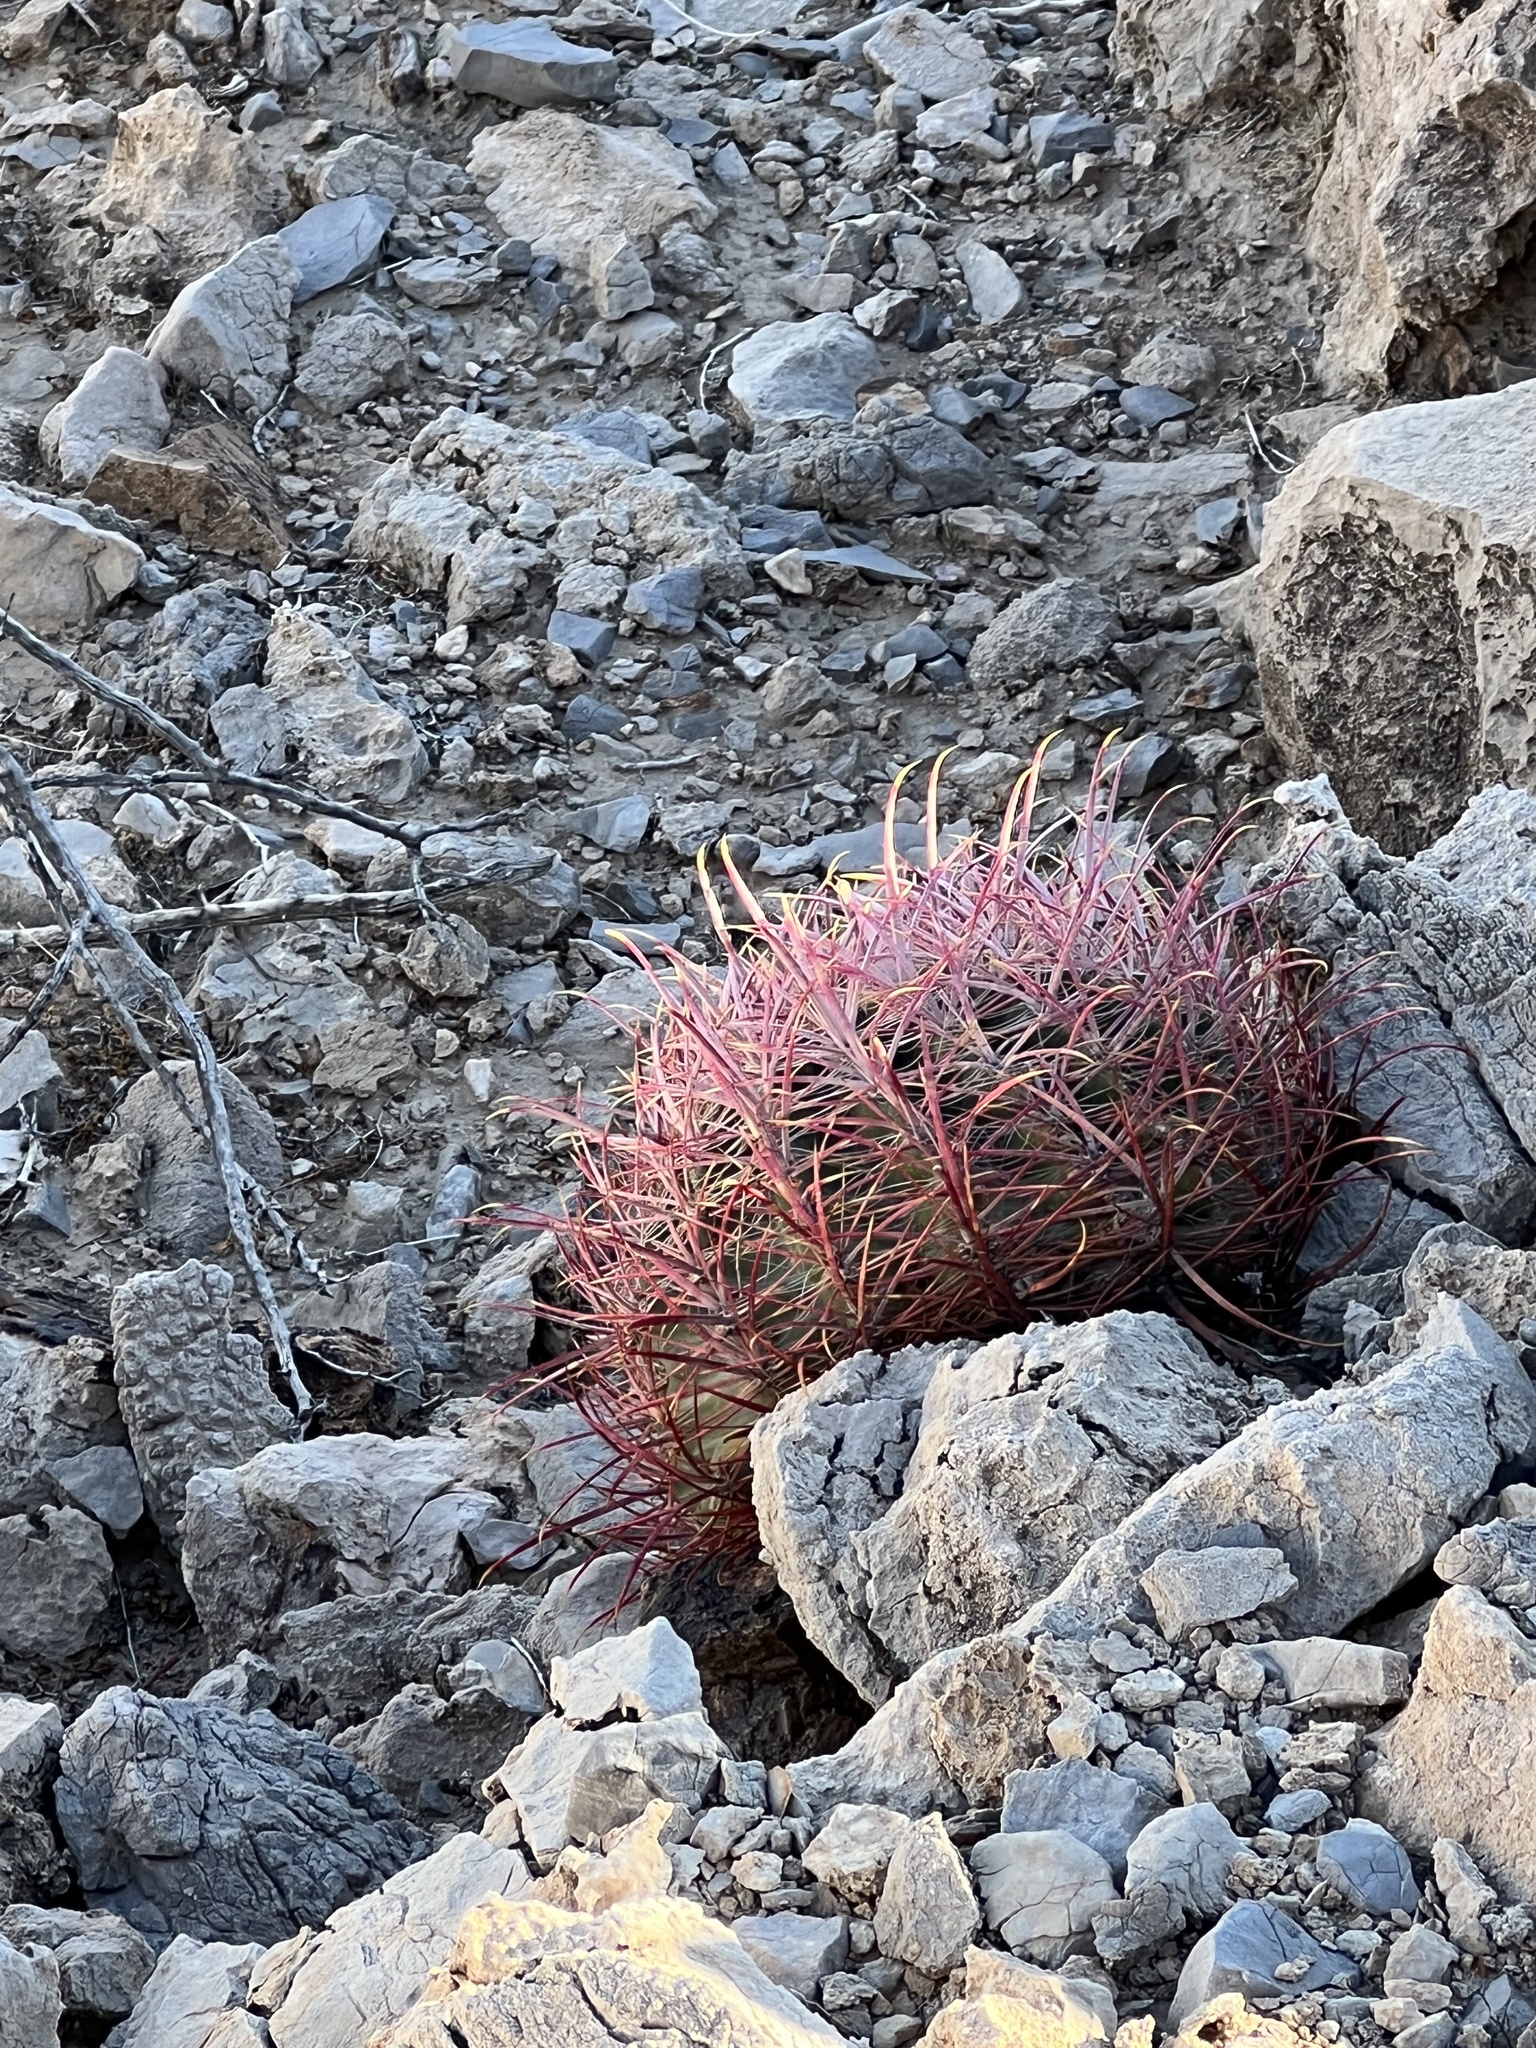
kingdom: Plantae
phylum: Tracheophyta
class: Magnoliopsida
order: Caryophyllales
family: Cactaceae
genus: Ferocactus
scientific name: Ferocactus cylindraceus
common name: California barrel cactus
